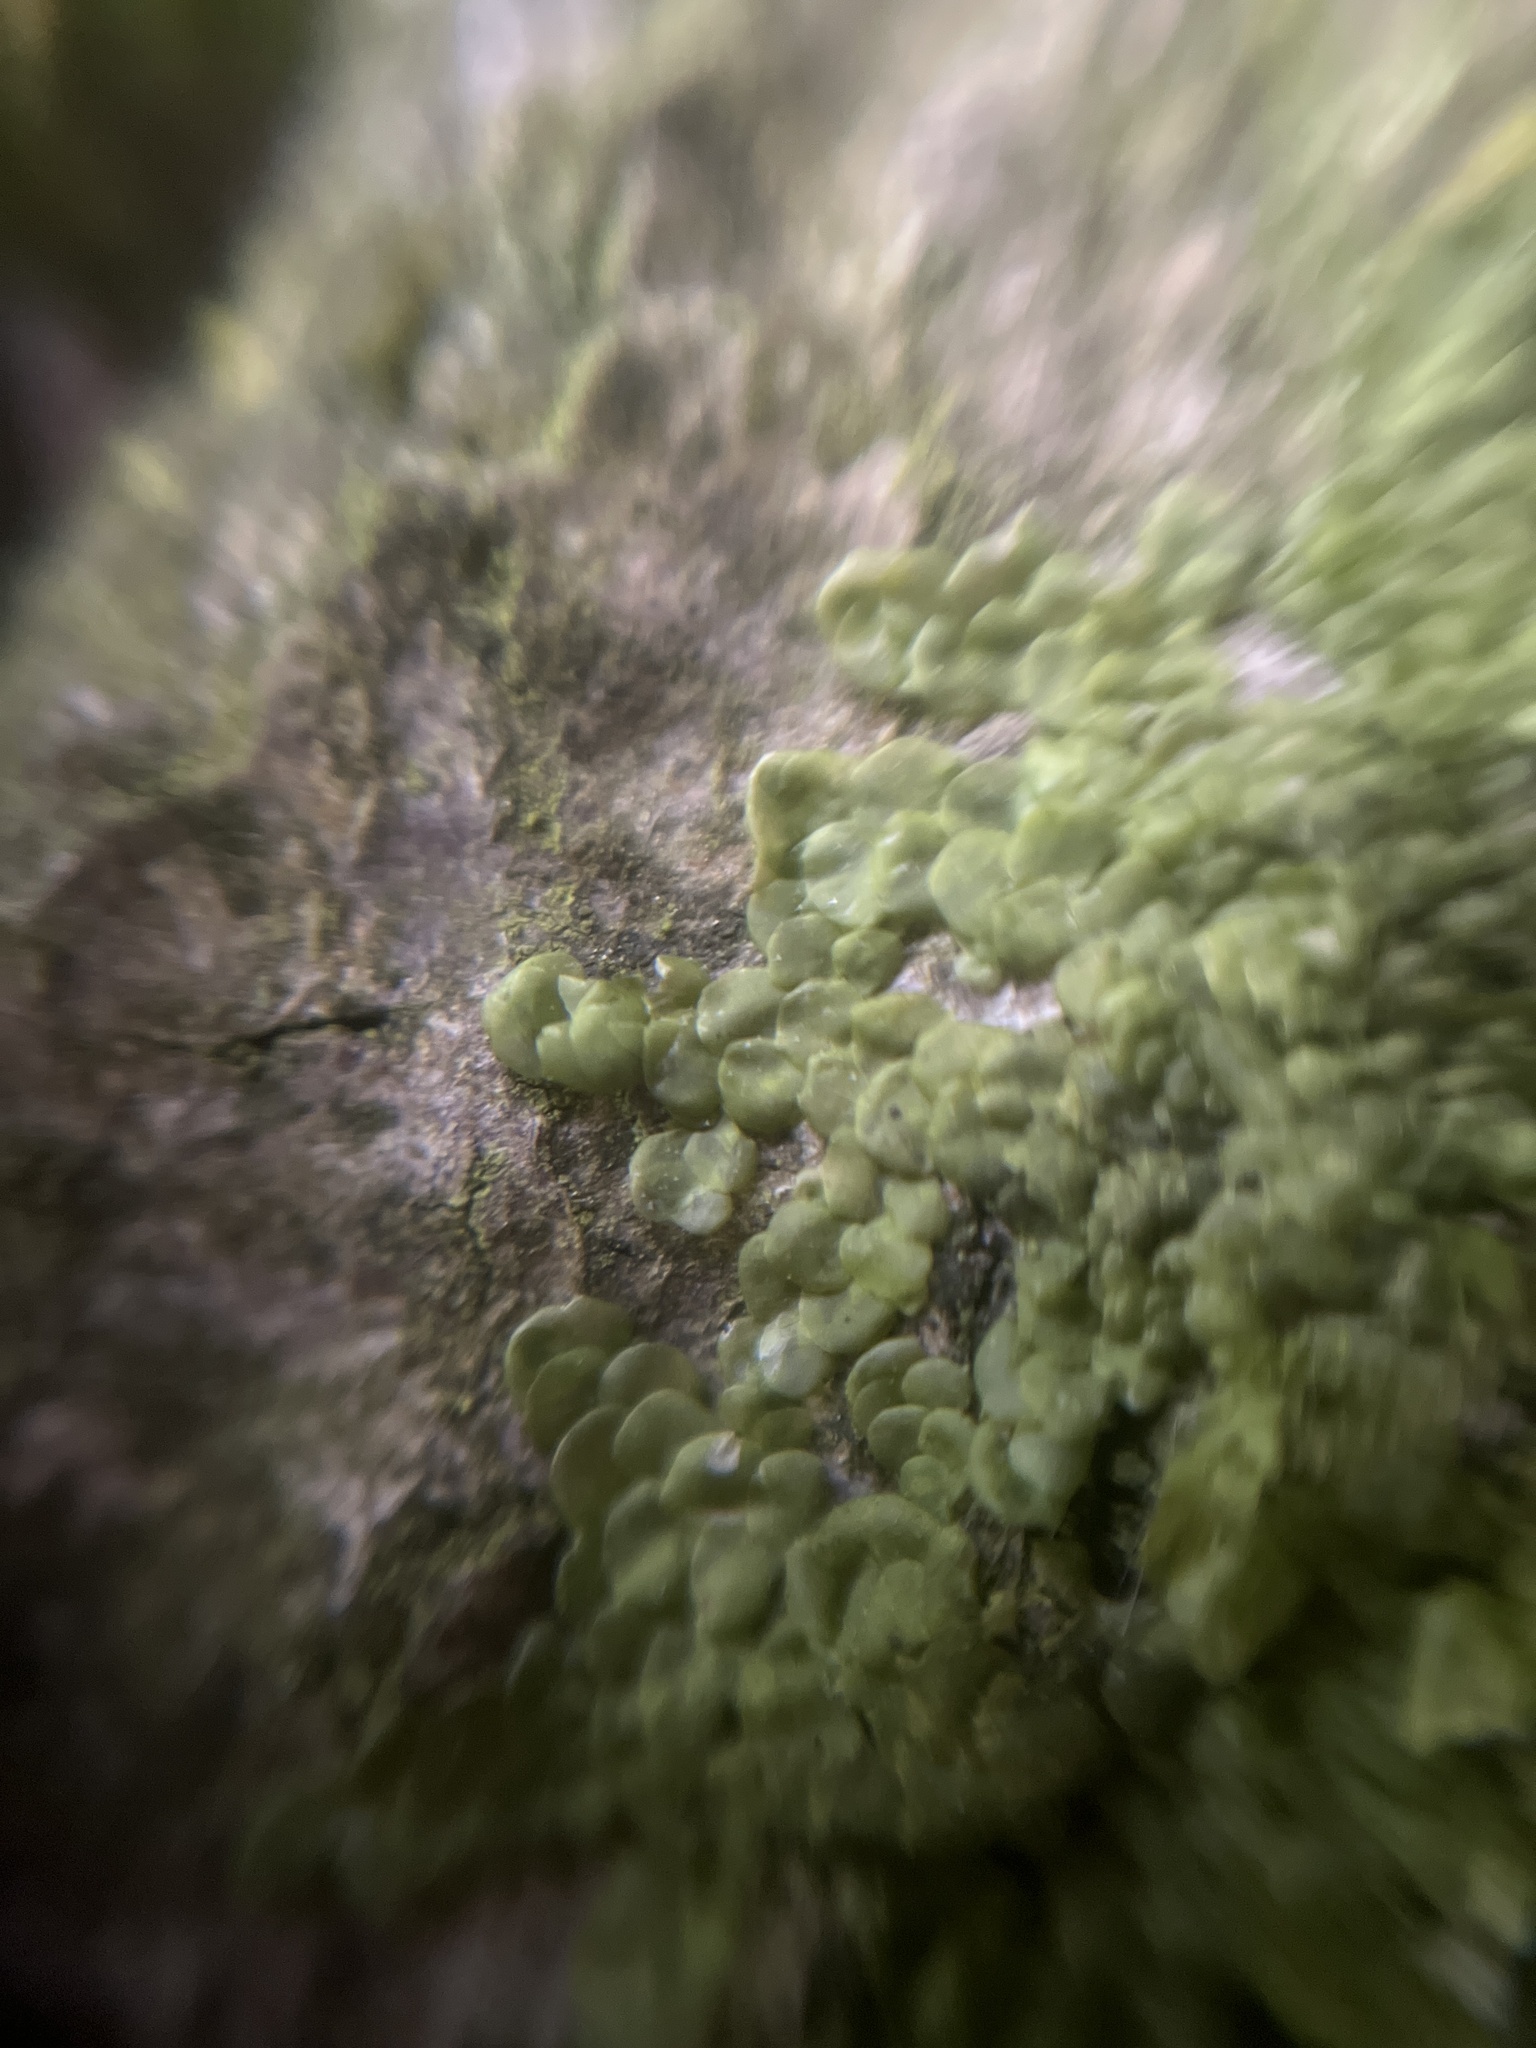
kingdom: Plantae
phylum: Marchantiophyta
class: Jungermanniopsida
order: Porellales
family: Radulaceae
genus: Radula
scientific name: Radula complanata
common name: Flat-leaved scalewort
